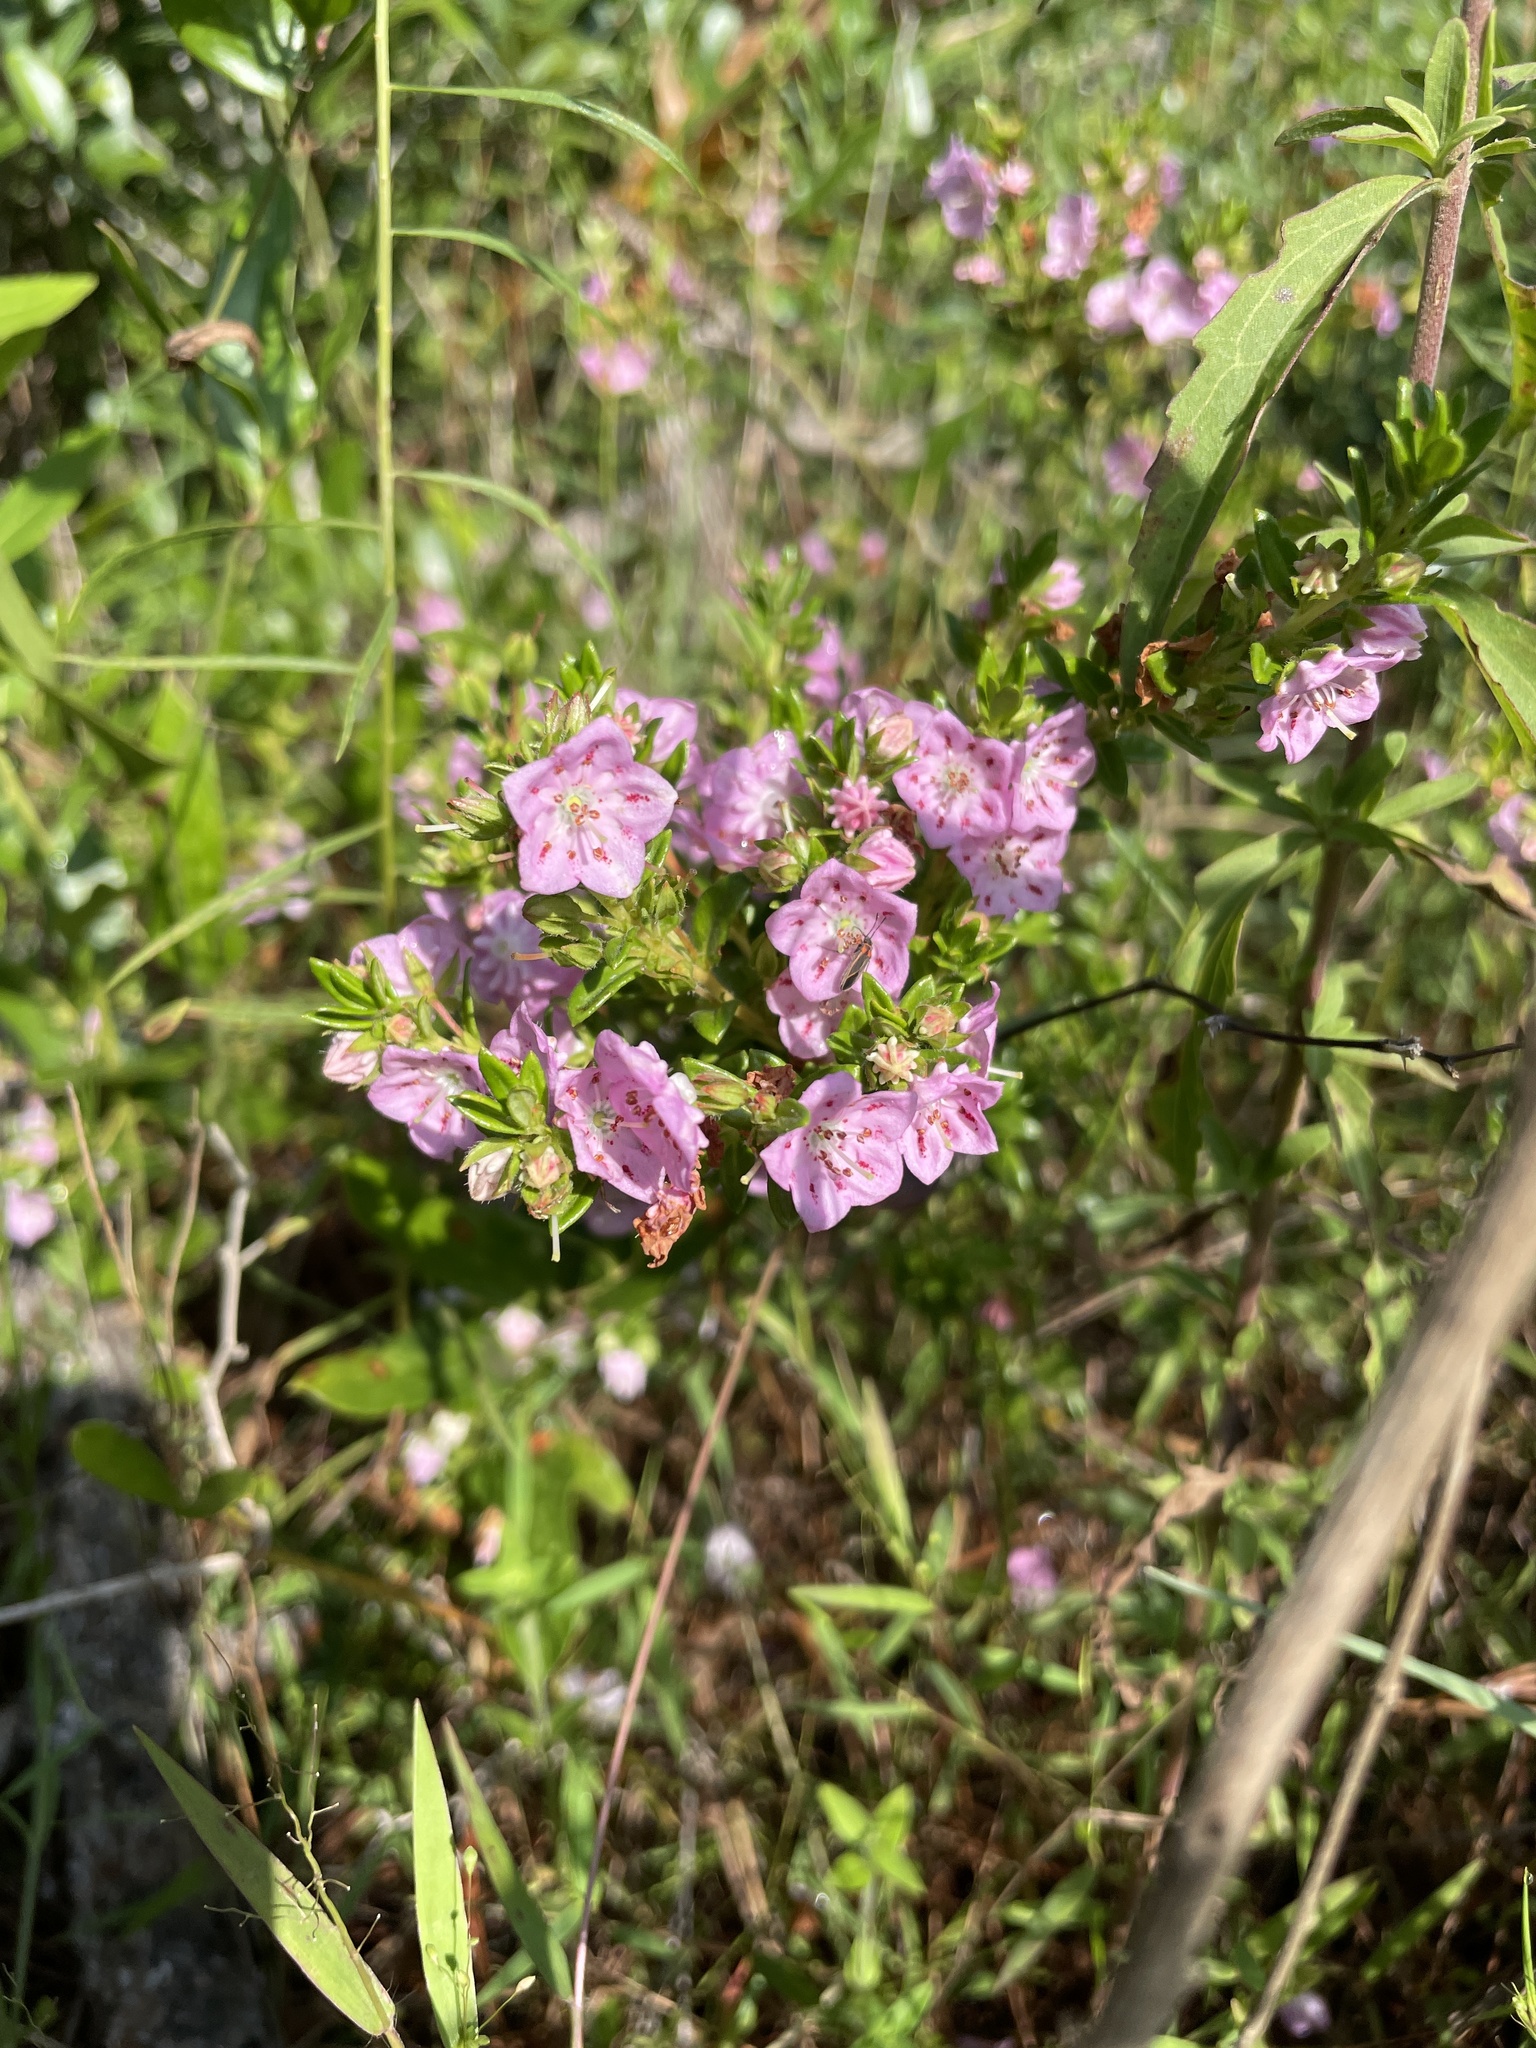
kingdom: Plantae
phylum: Tracheophyta
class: Magnoliopsida
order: Ericales
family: Ericaceae
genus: Kalmia
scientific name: Kalmia hirsuta
